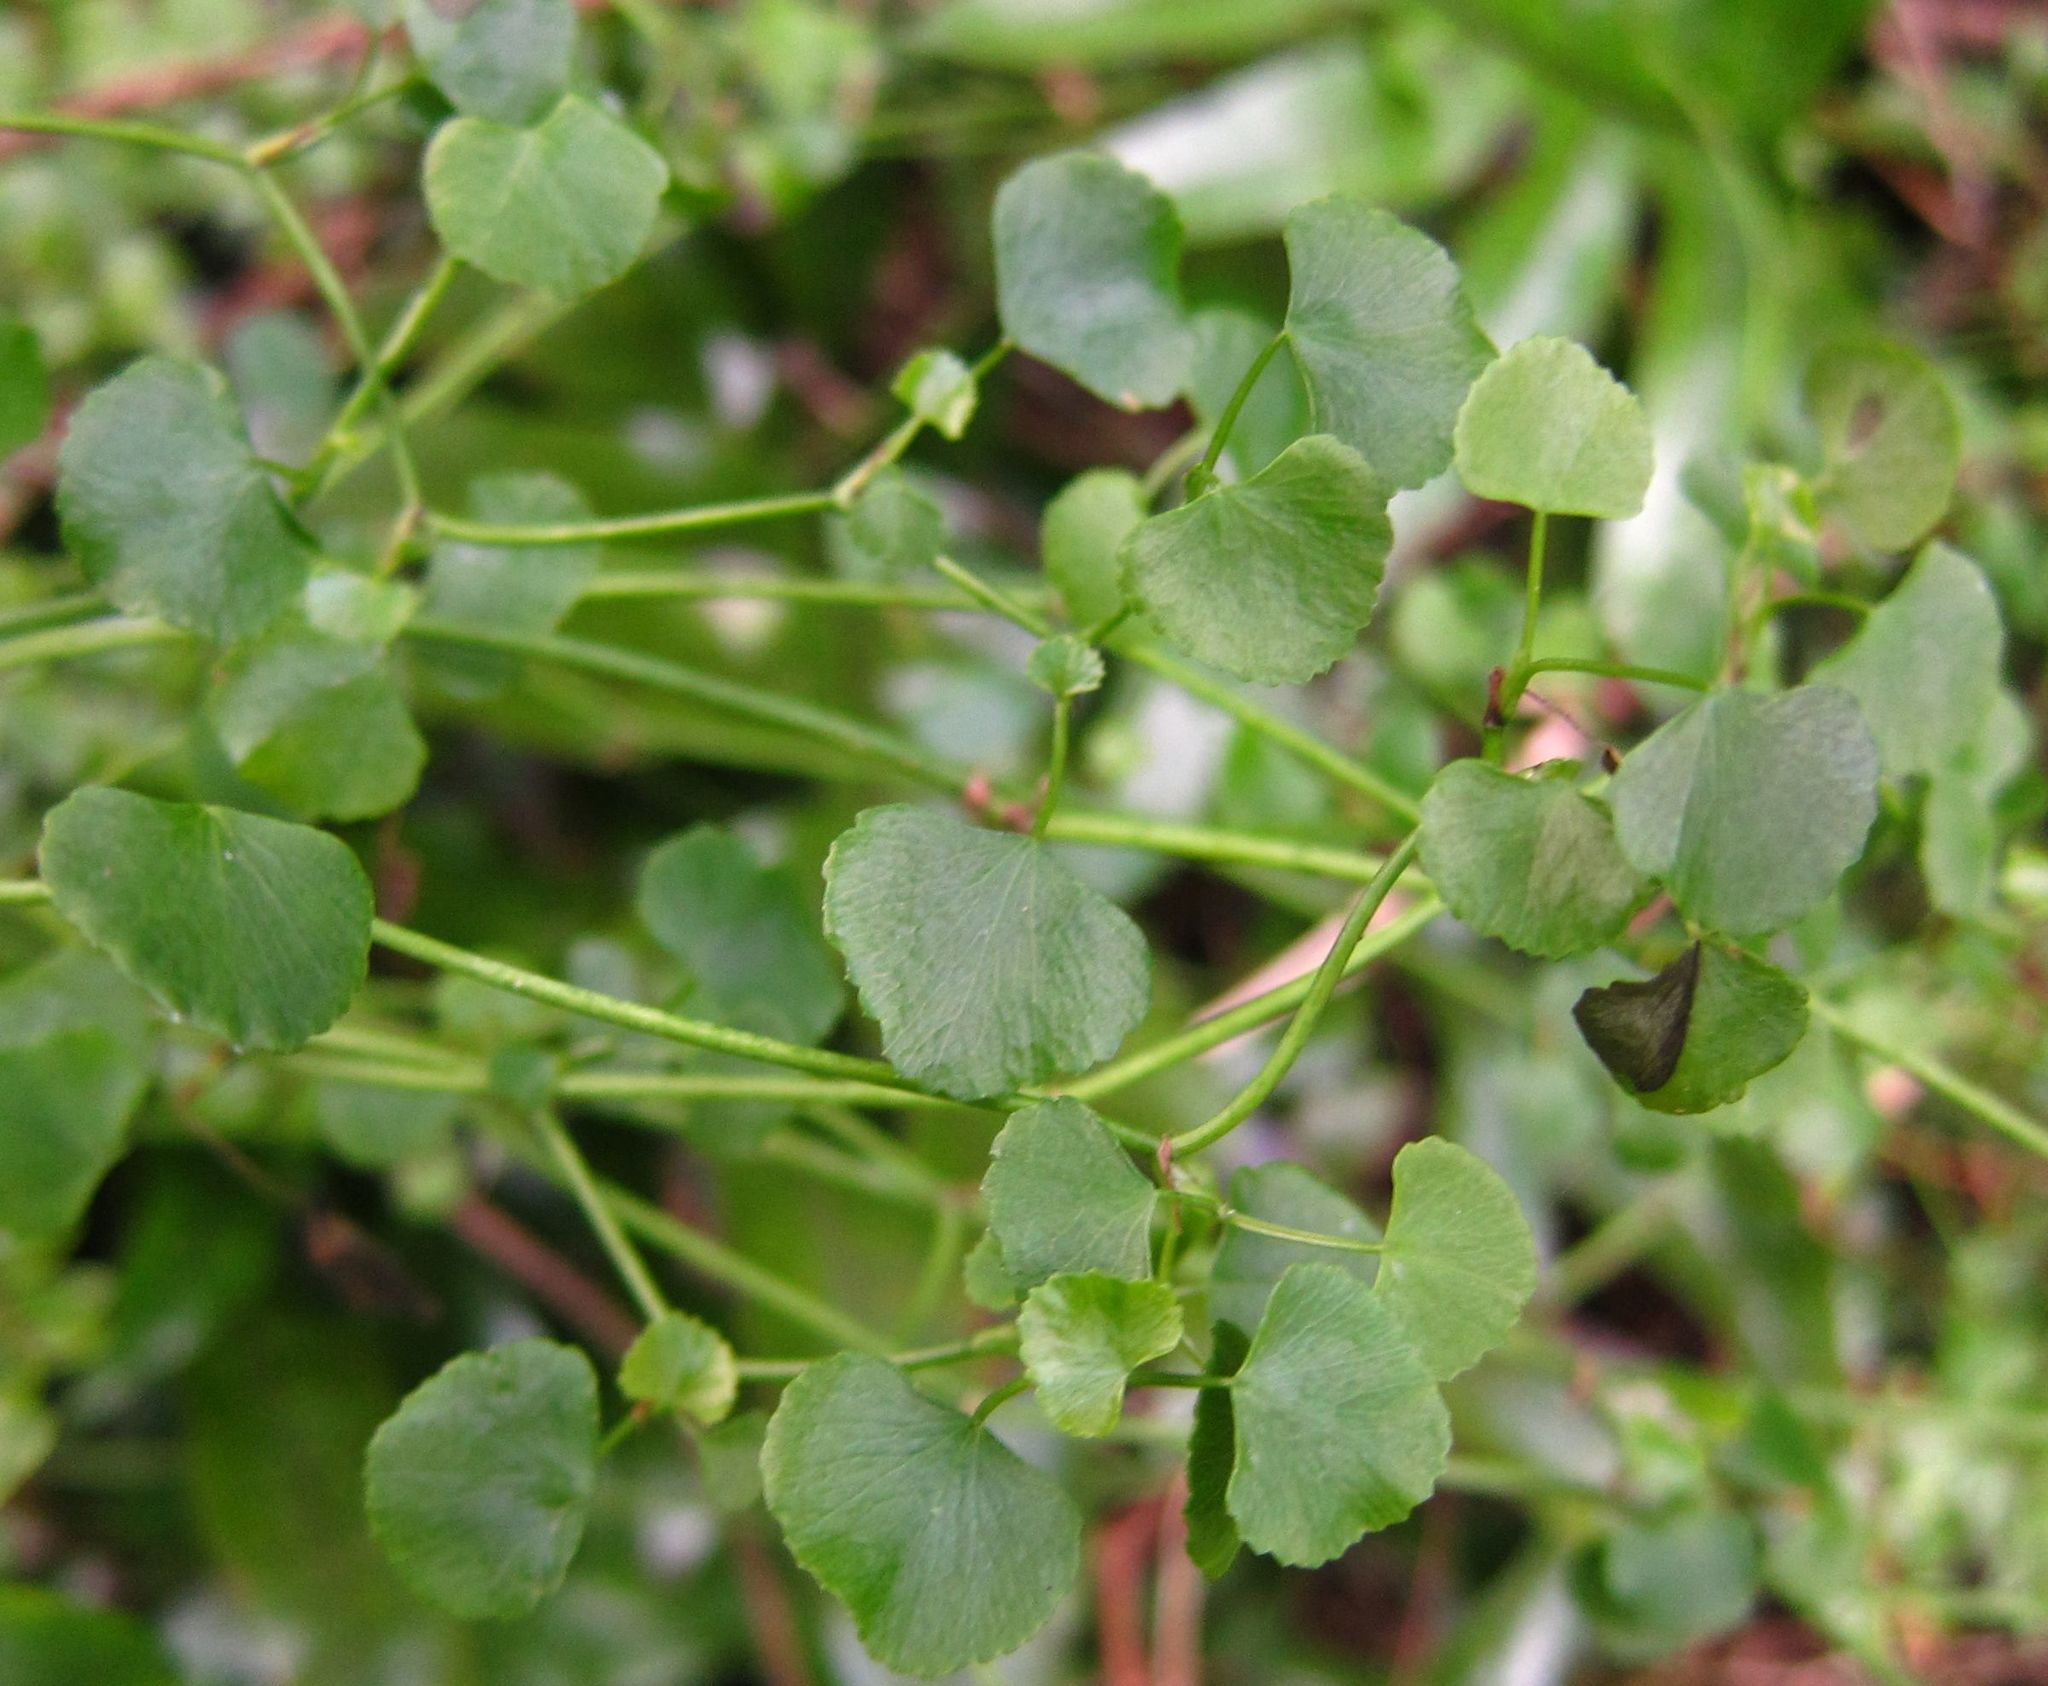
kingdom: Plantae
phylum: Tracheophyta
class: Magnoliopsida
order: Apiales
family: Apiaceae
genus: Scandia
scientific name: Scandia geniculata
